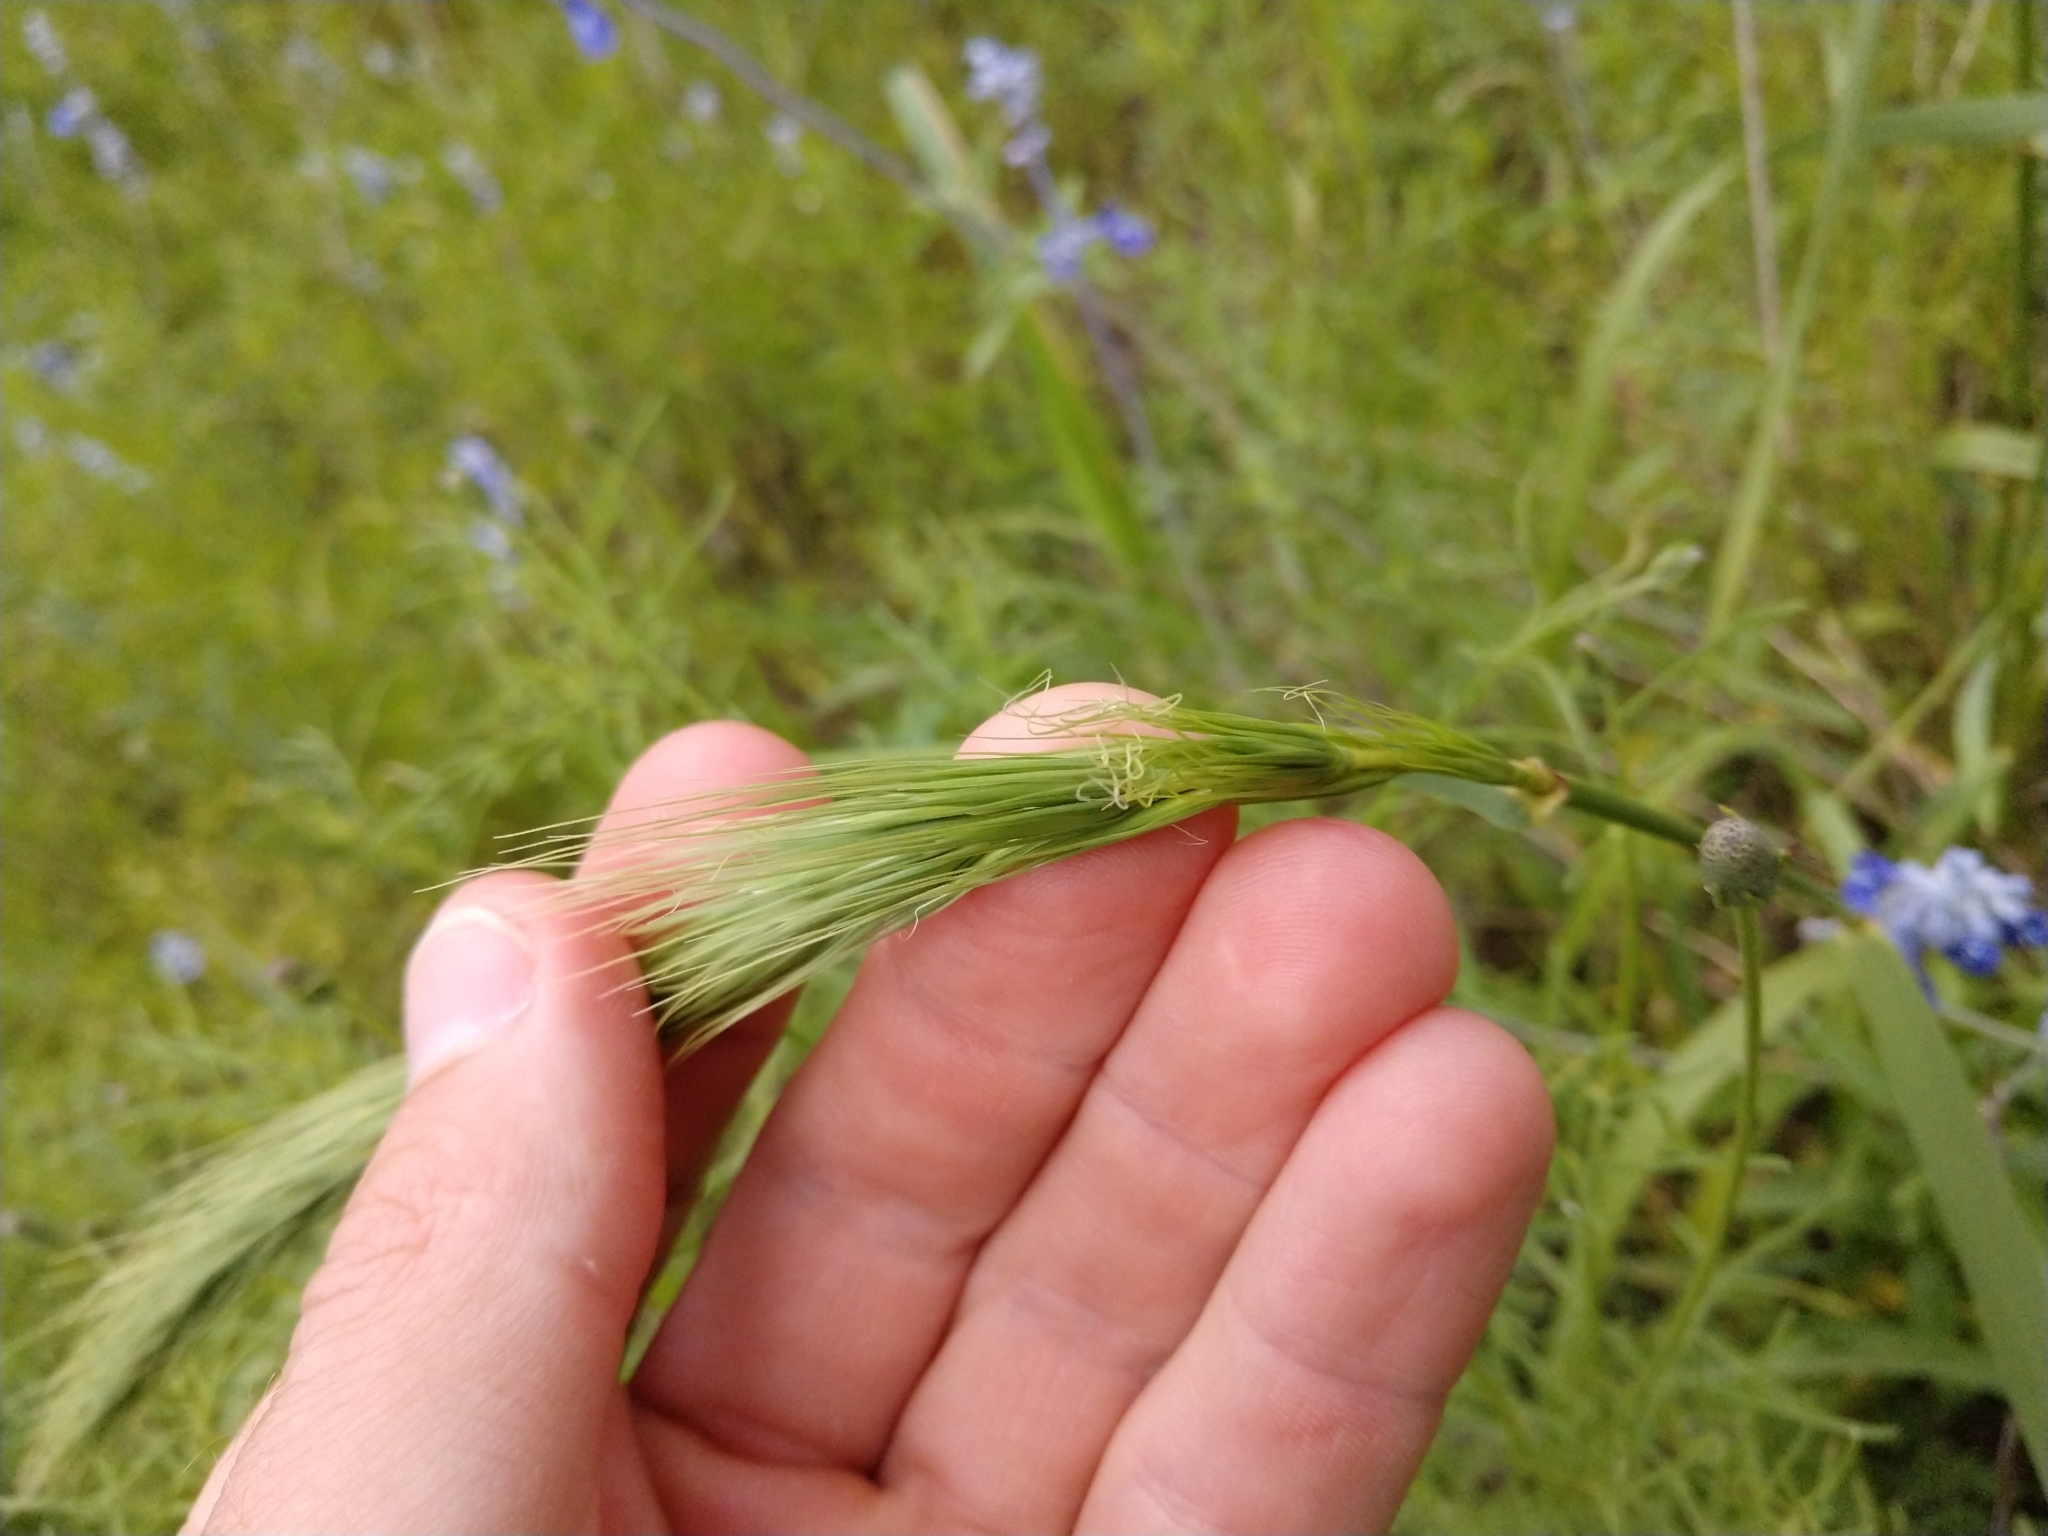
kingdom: Plantae
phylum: Tracheophyta
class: Liliopsida
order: Poales
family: Poaceae
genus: Elymus
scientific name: Elymus canadensis
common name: Canada wild rye
